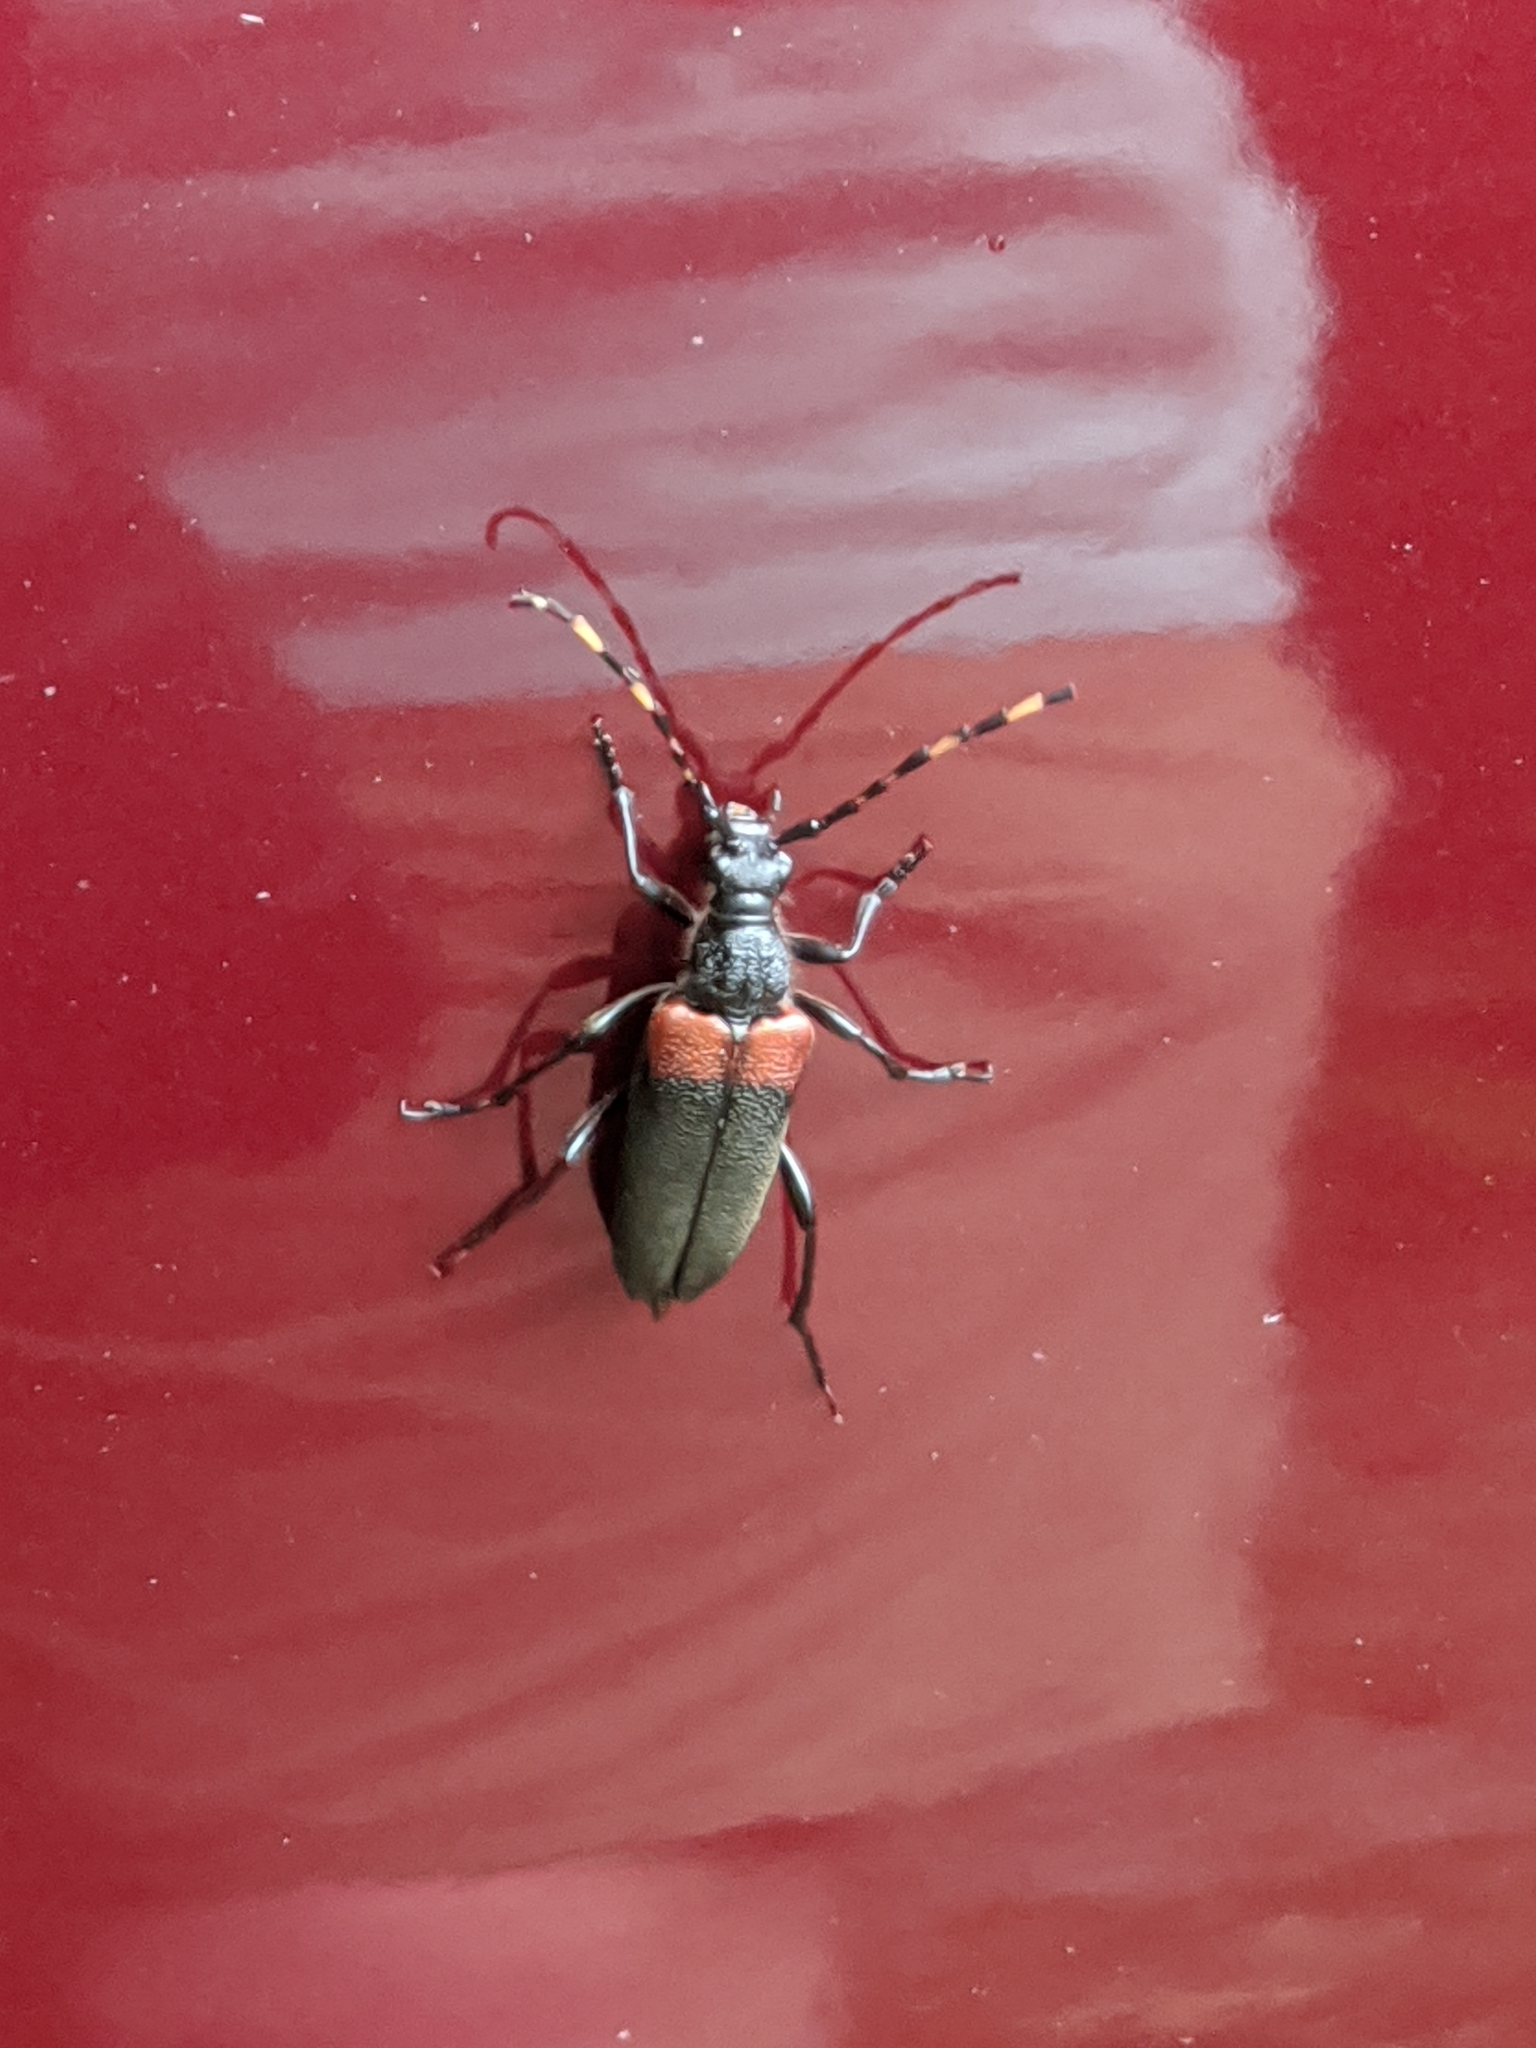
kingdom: Animalia
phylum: Arthropoda
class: Insecta
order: Coleoptera
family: Cerambycidae
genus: Stictoleptura
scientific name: Stictoleptura canadensis
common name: Red-shouldered pine borer
